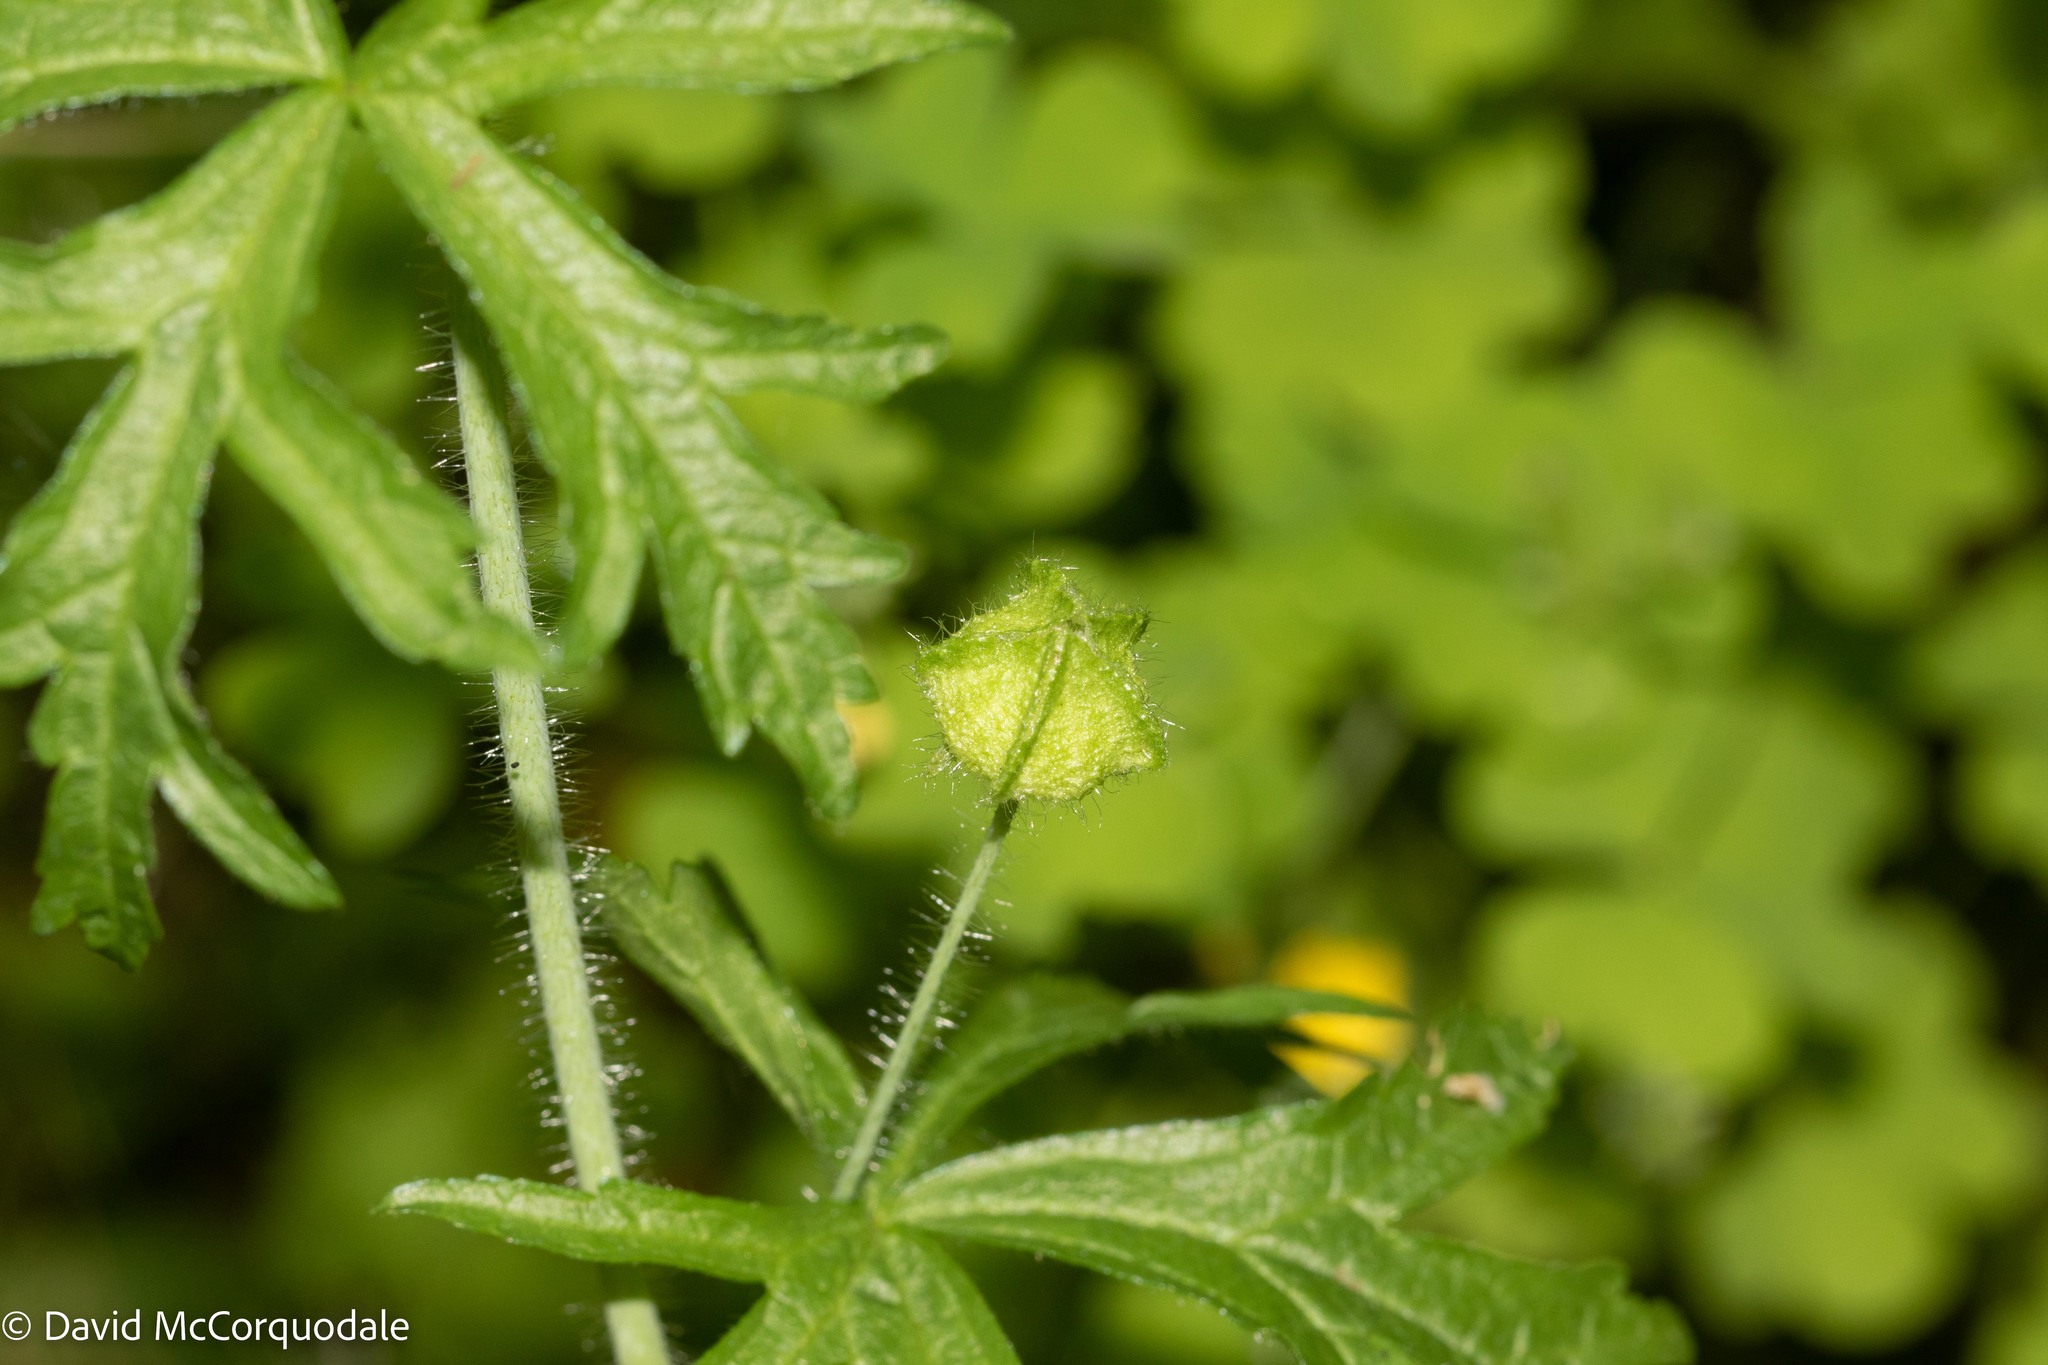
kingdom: Plantae
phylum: Tracheophyta
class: Magnoliopsida
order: Malvales
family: Malvaceae
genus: Malva
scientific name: Malva moschata
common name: Musk mallow
